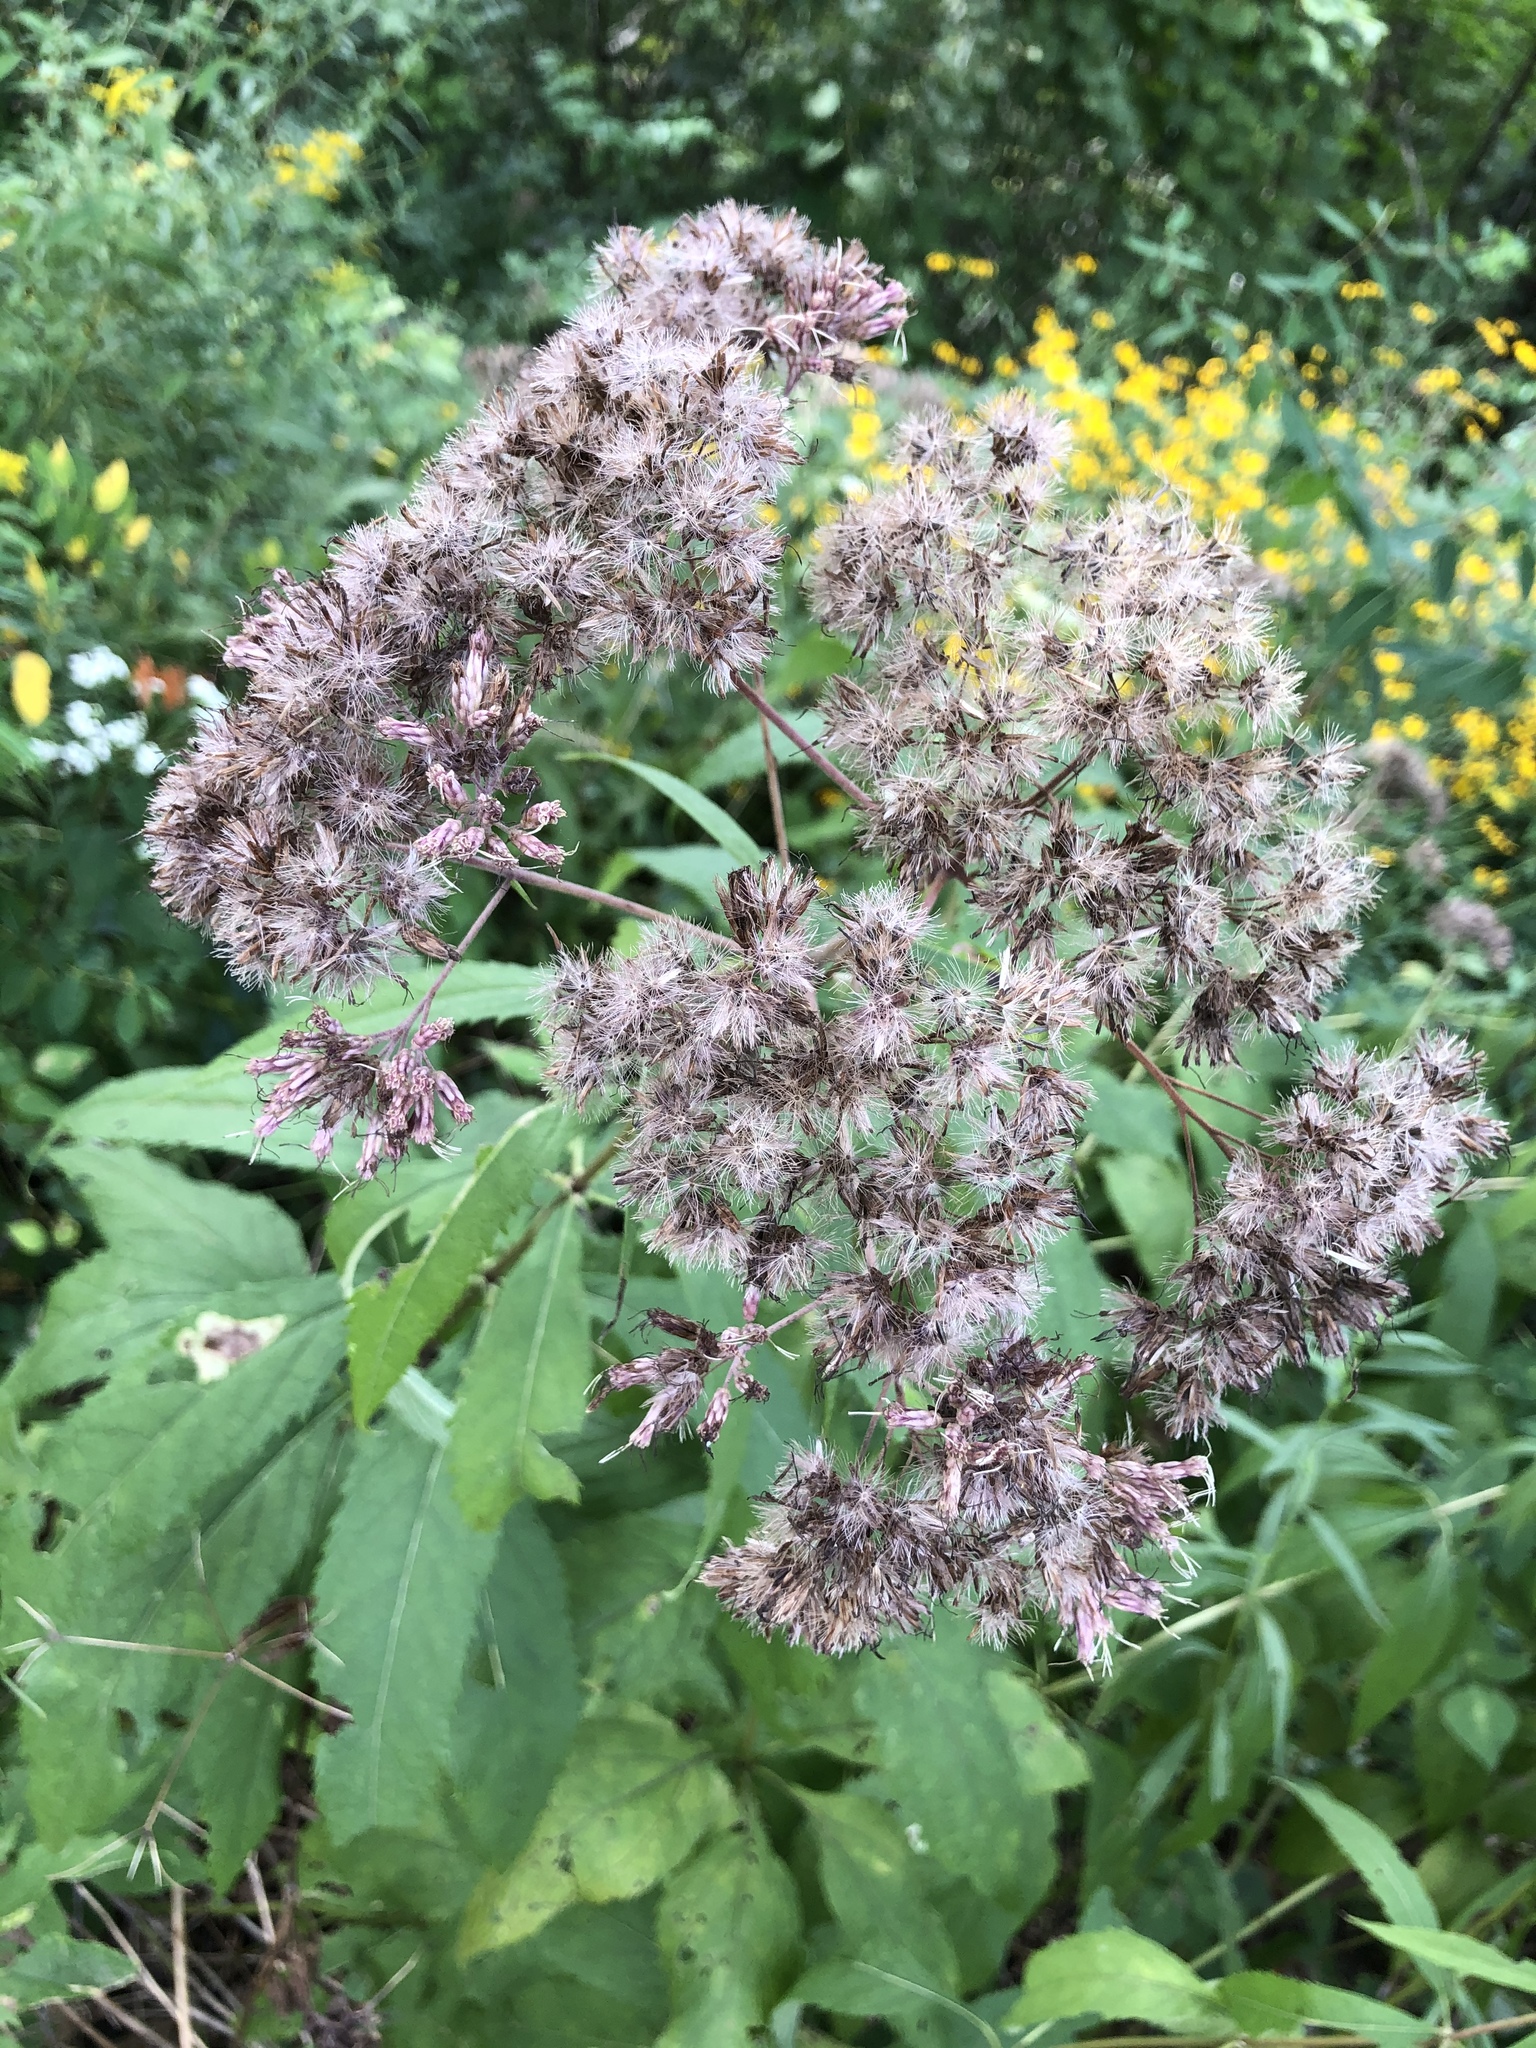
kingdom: Plantae
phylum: Tracheophyta
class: Magnoliopsida
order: Asterales
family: Asteraceae
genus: Eutrochium
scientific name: Eutrochium purpureum
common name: Gravelroot
